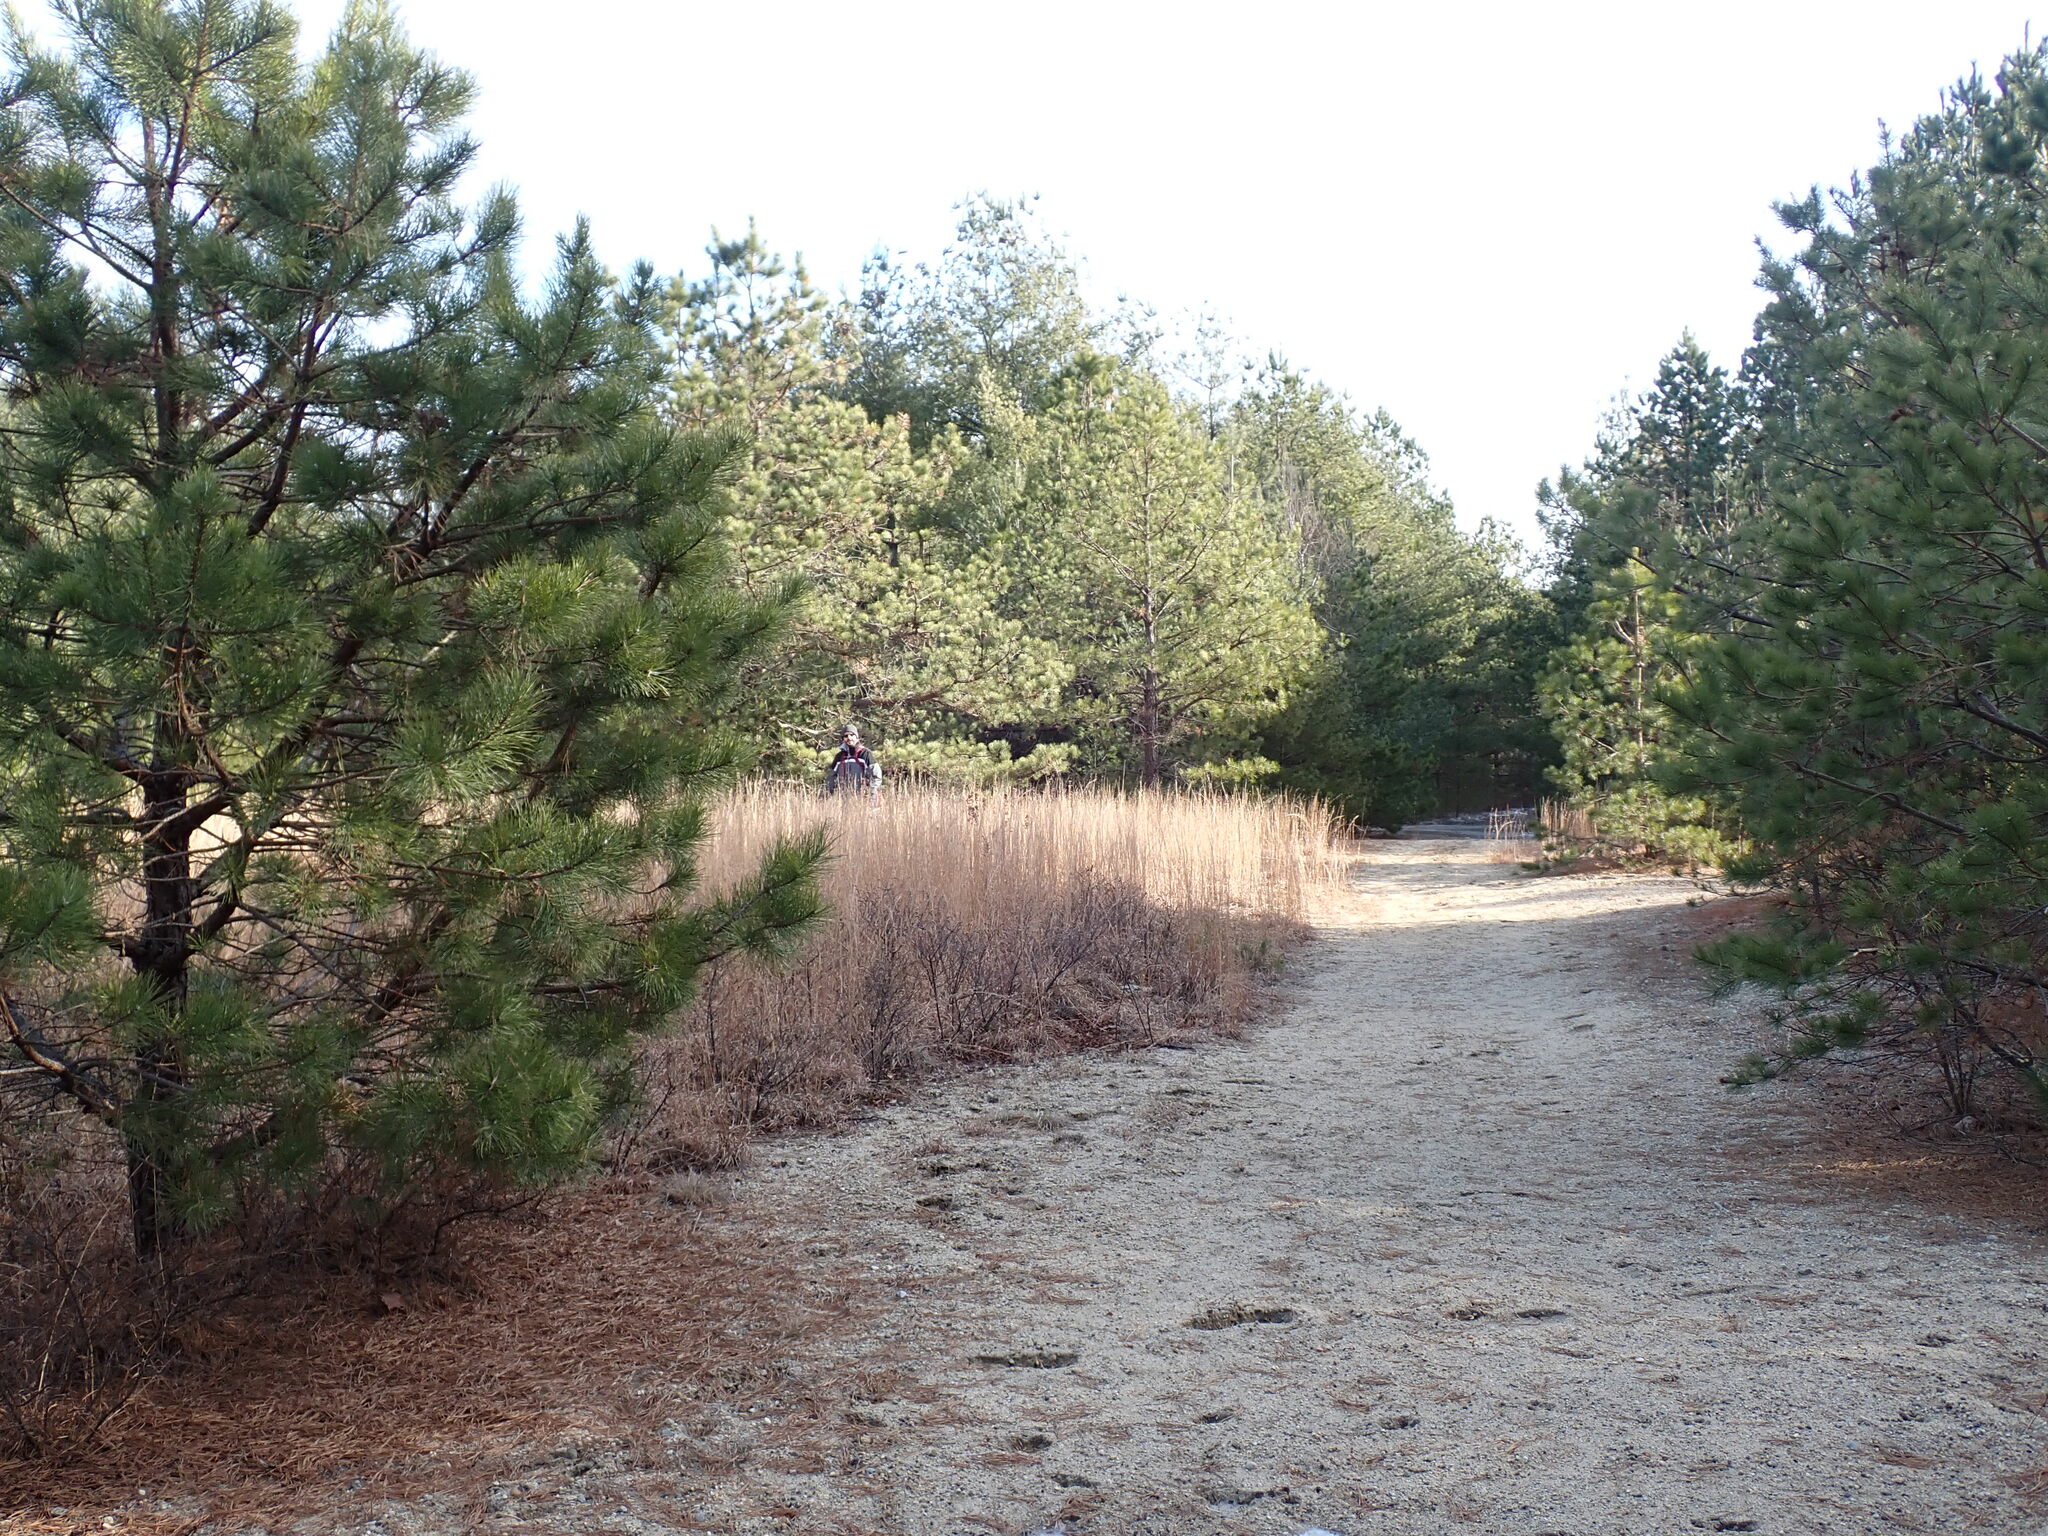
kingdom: Plantae
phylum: Tracheophyta
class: Liliopsida
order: Poales
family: Poaceae
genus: Schizachyrium
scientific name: Schizachyrium scoparium
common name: Little bluestem
